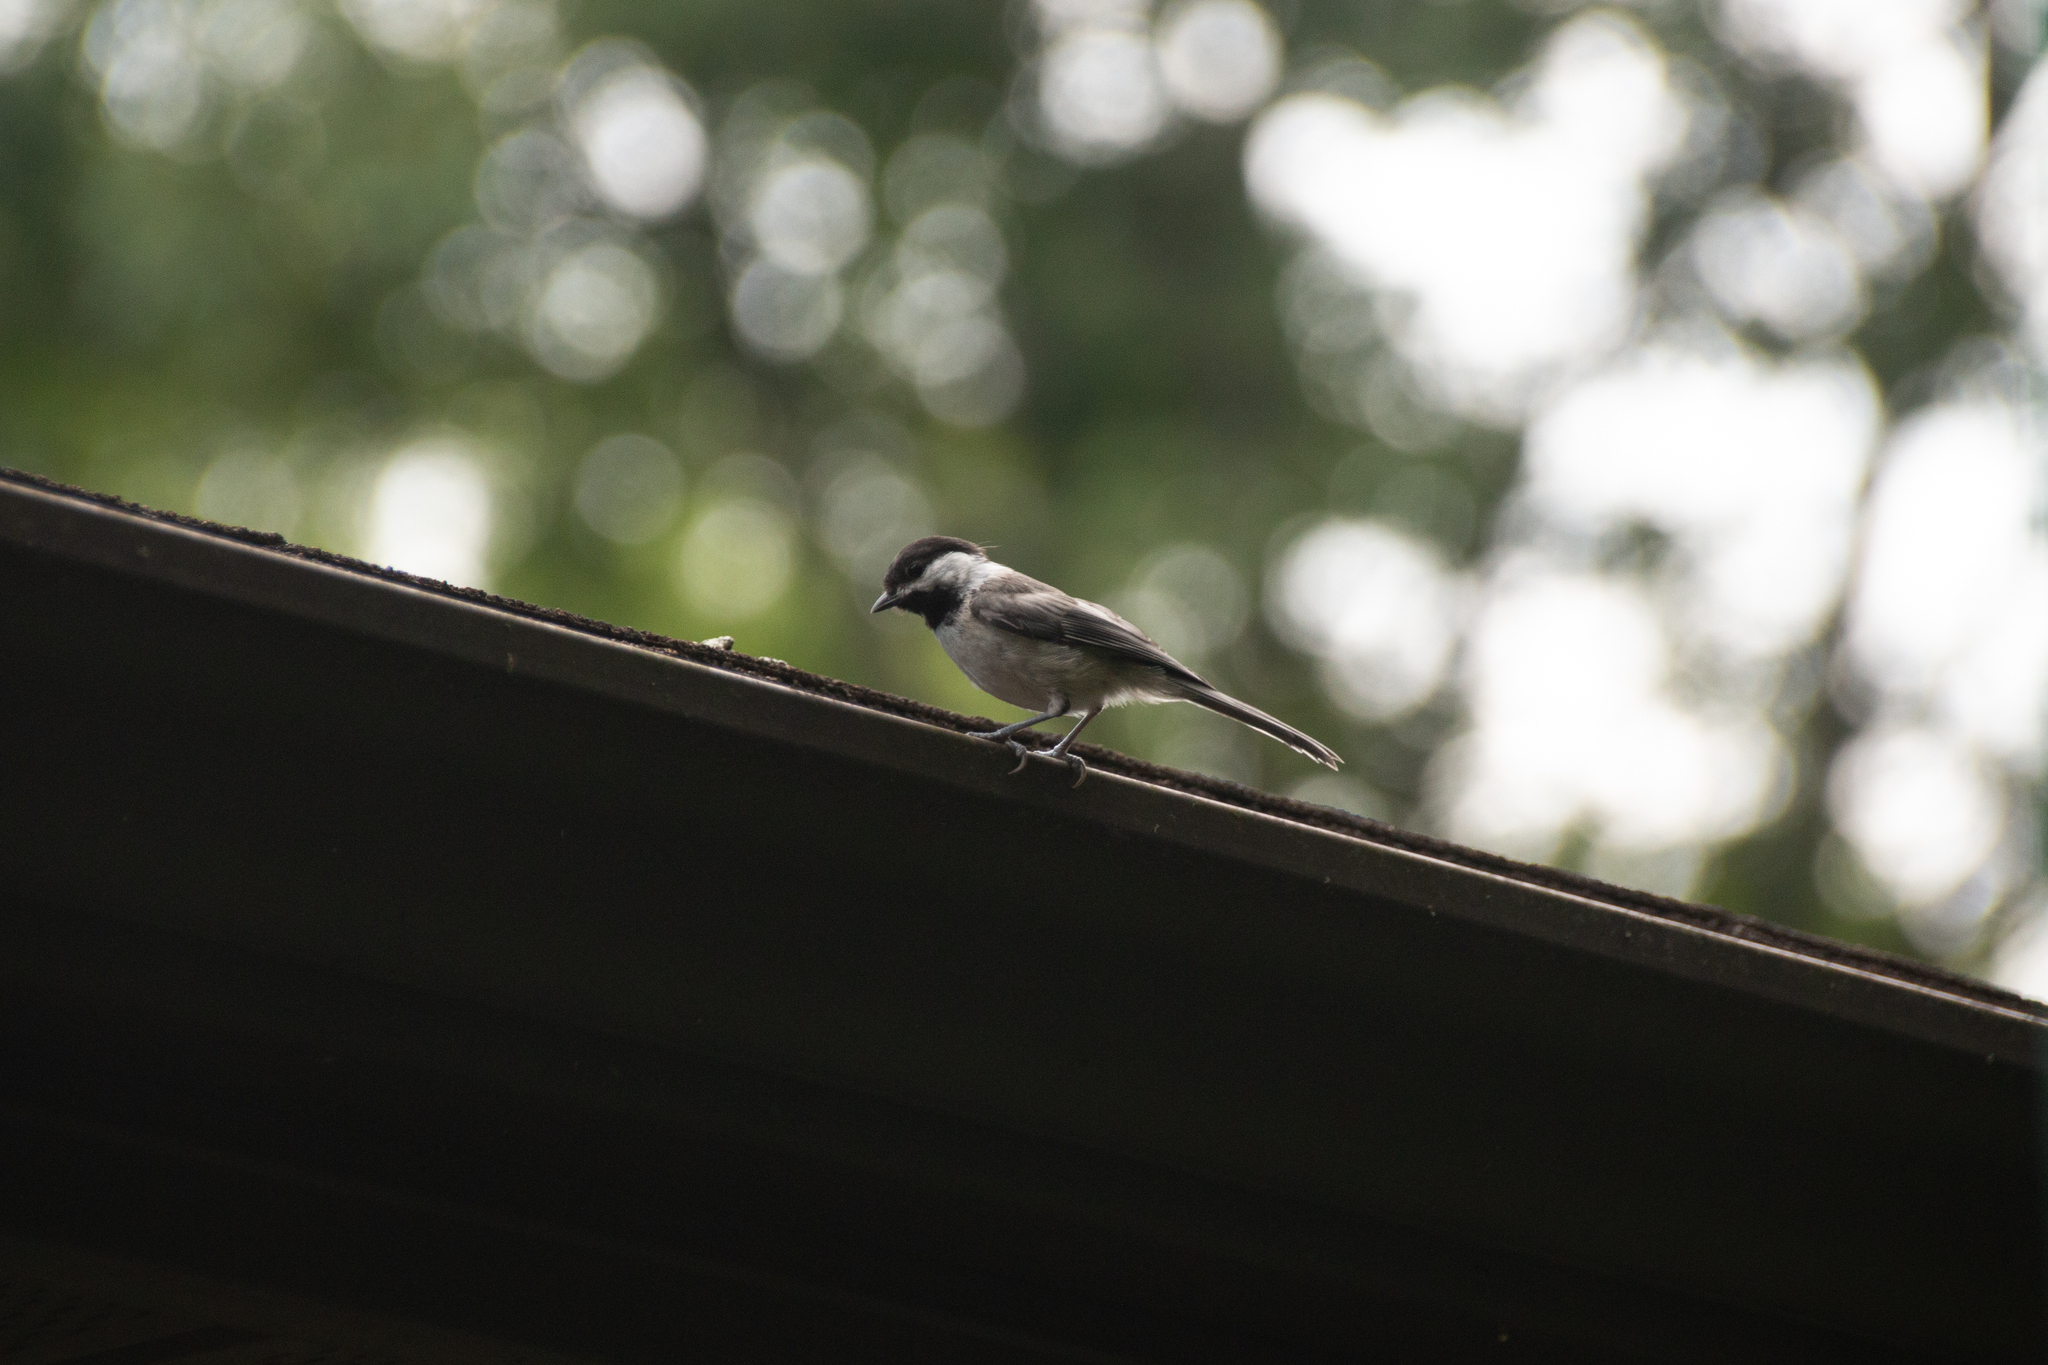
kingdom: Animalia
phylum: Chordata
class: Aves
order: Passeriformes
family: Paridae
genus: Poecile
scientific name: Poecile atricapillus
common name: Black-capped chickadee
